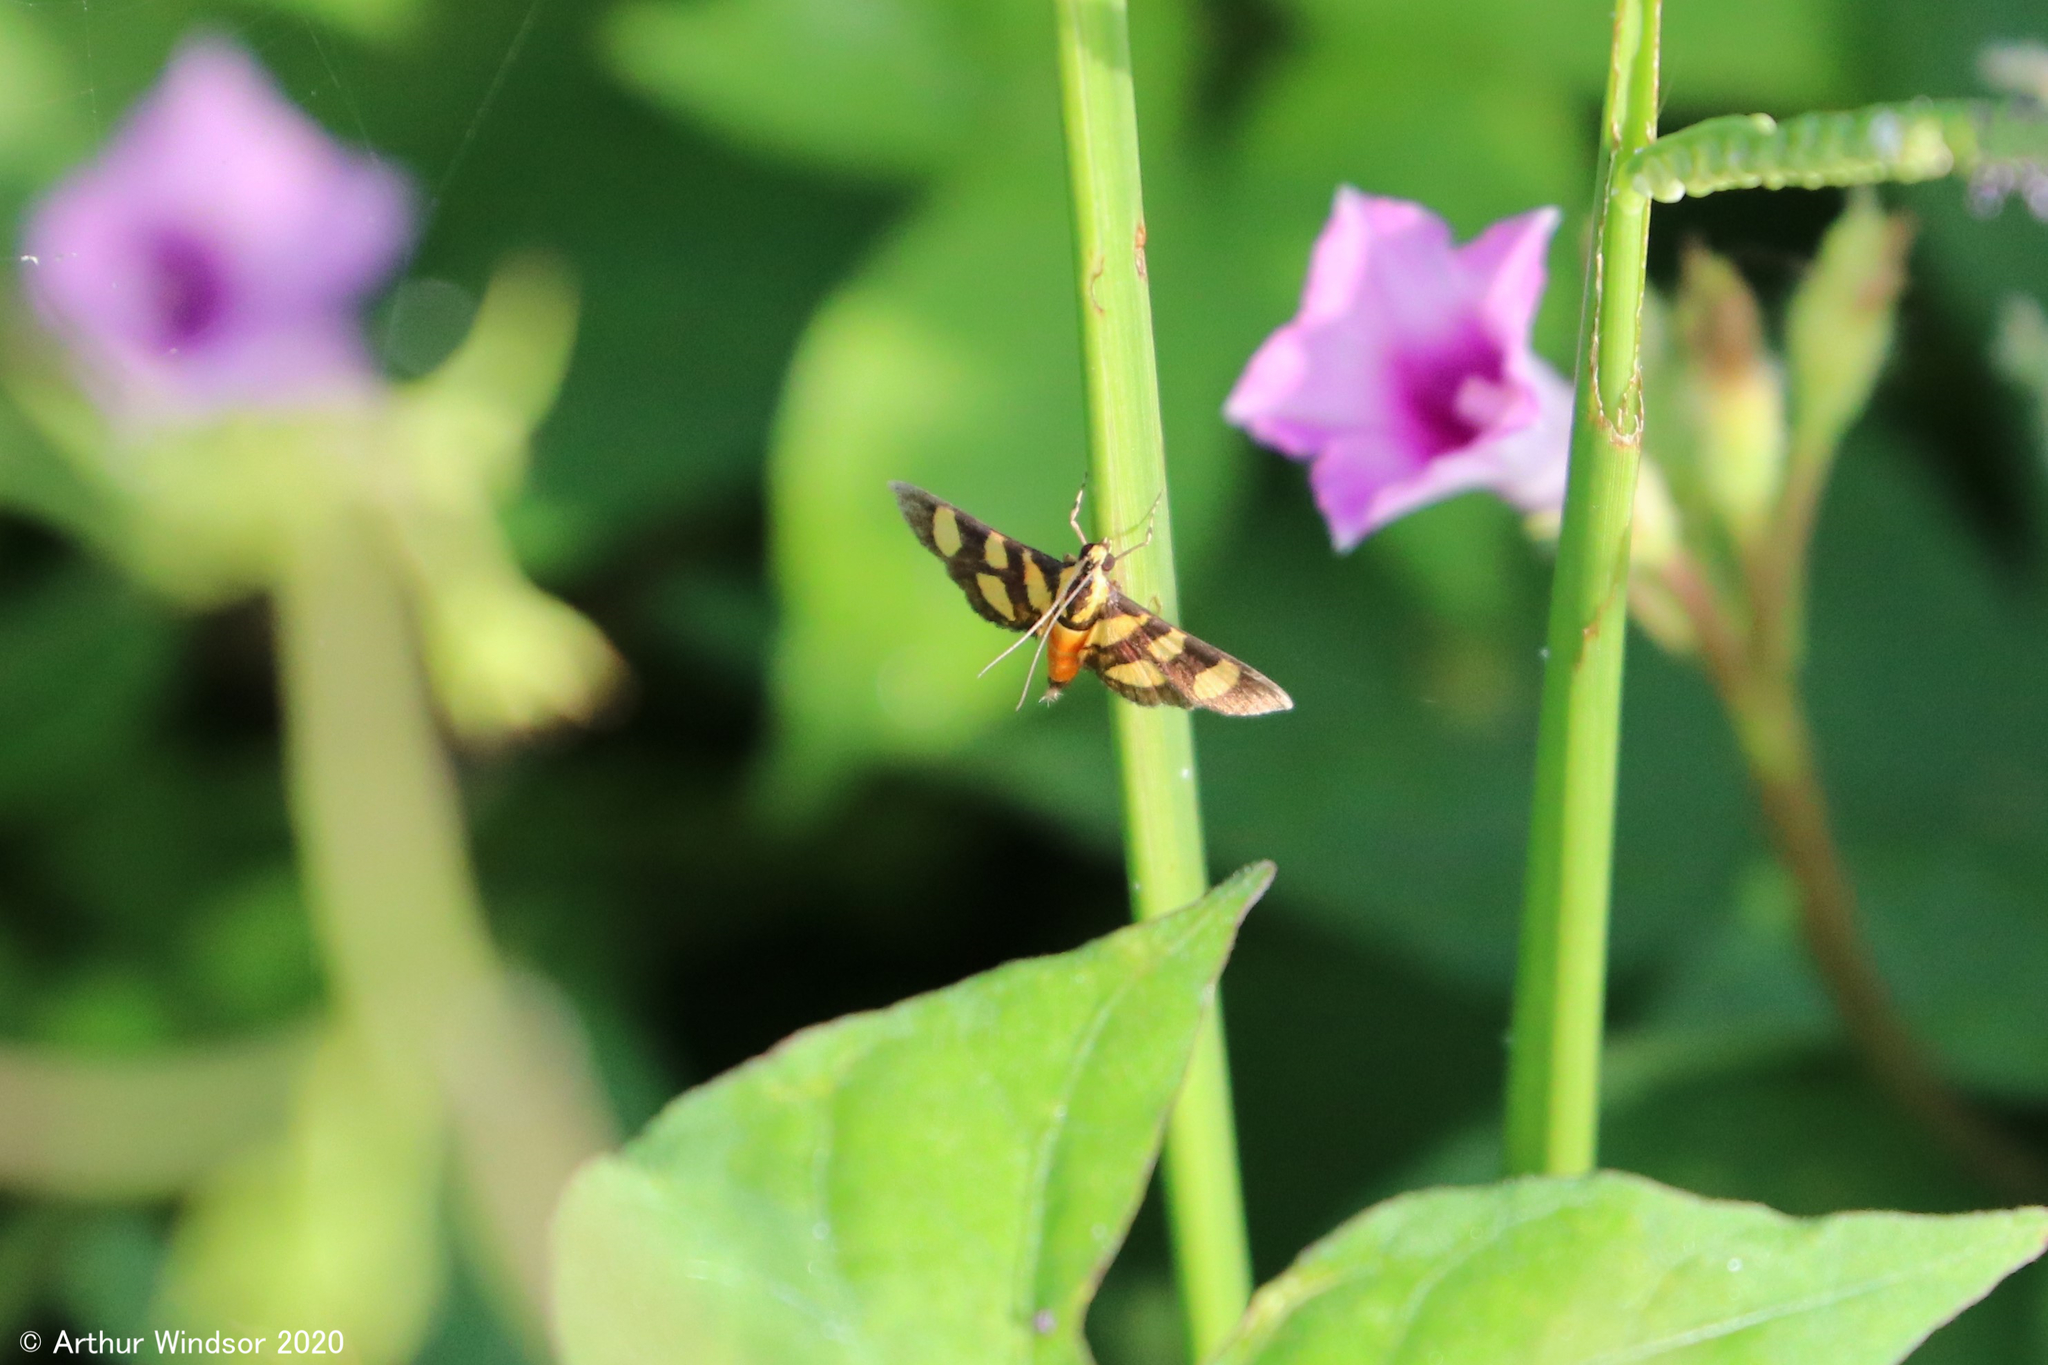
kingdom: Animalia
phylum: Arthropoda
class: Insecta
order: Lepidoptera
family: Crambidae
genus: Syngamia
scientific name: Syngamia florella
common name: Orange-spotted flower moth
